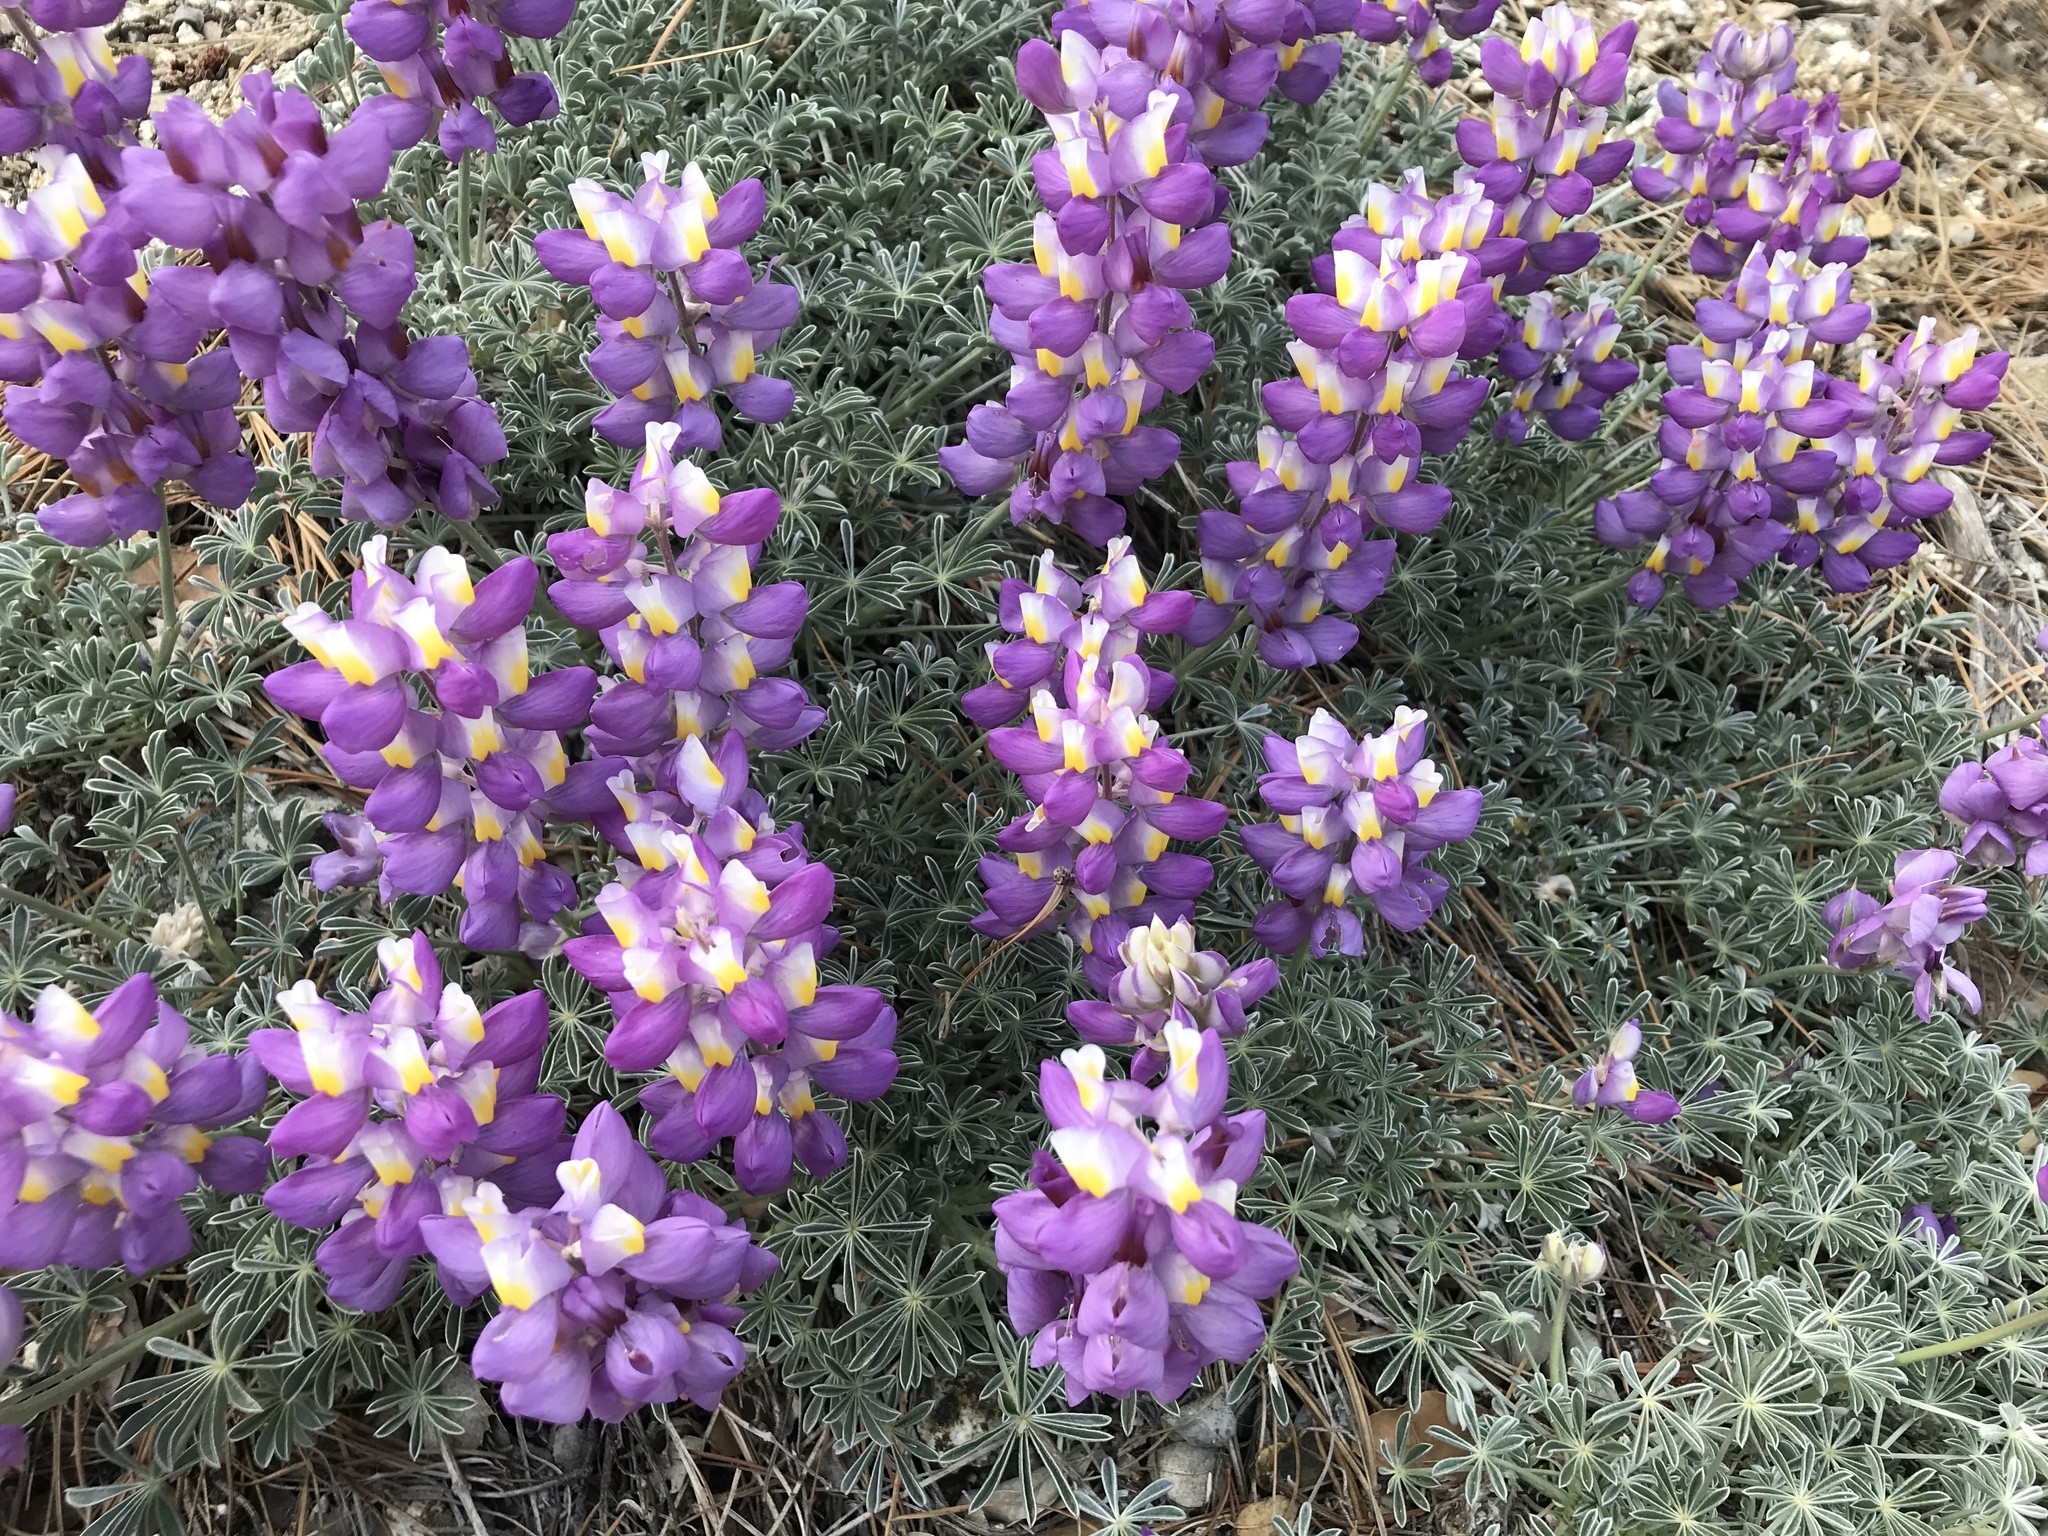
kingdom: Plantae
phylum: Tracheophyta
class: Magnoliopsida
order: Fabales
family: Fabaceae
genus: Lupinus
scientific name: Lupinus excubitus
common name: Grape soda lupine
